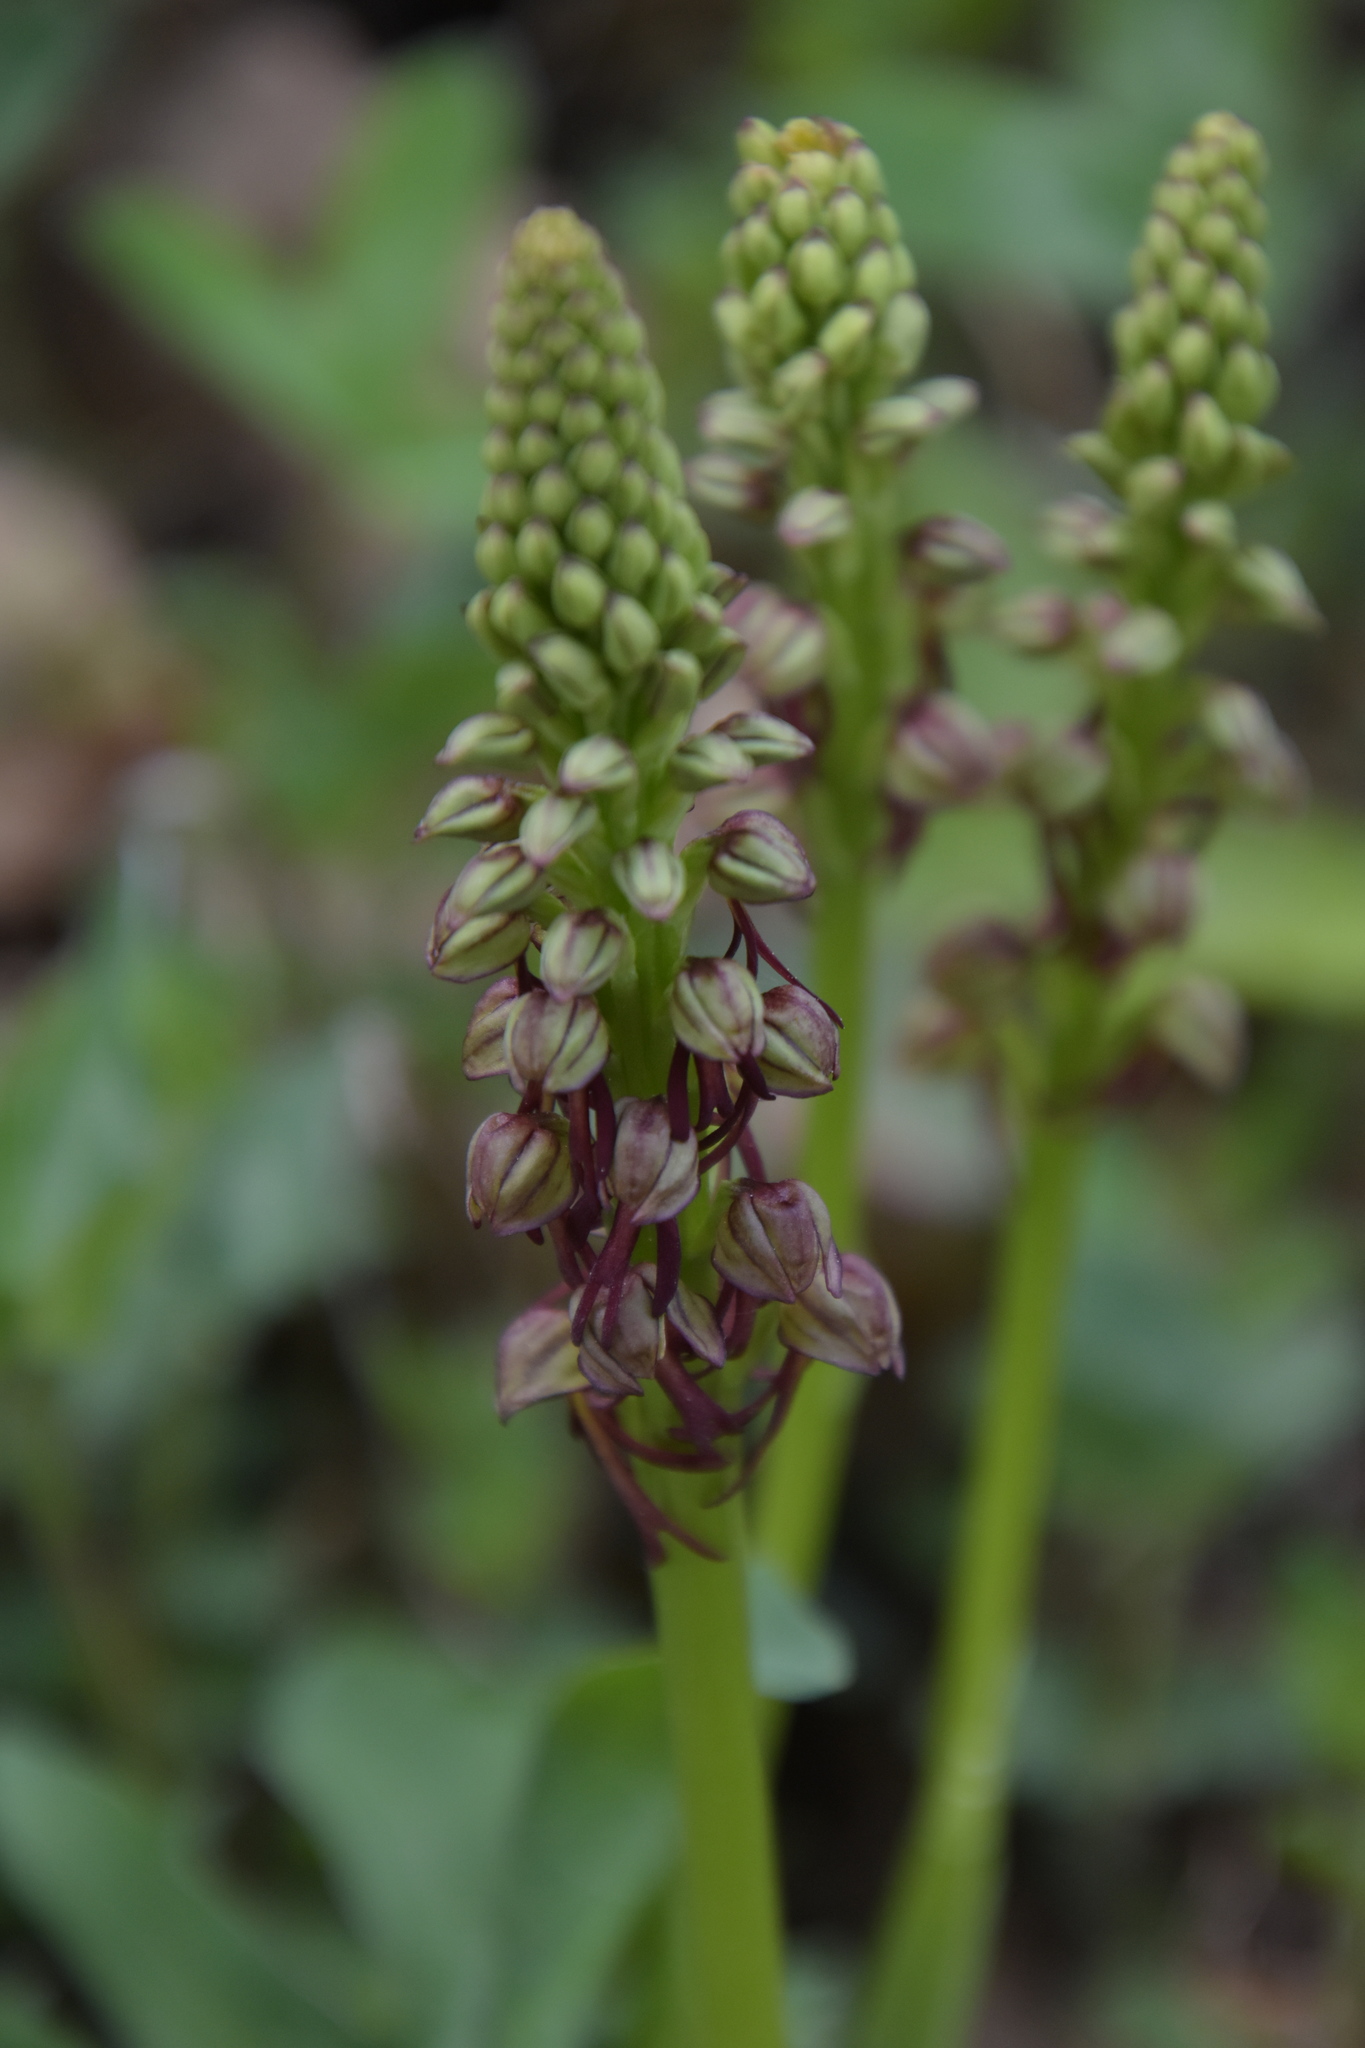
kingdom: Plantae
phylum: Tracheophyta
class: Liliopsida
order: Asparagales
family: Orchidaceae
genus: Orchis
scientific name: Orchis anthropophora
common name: Man orchid
